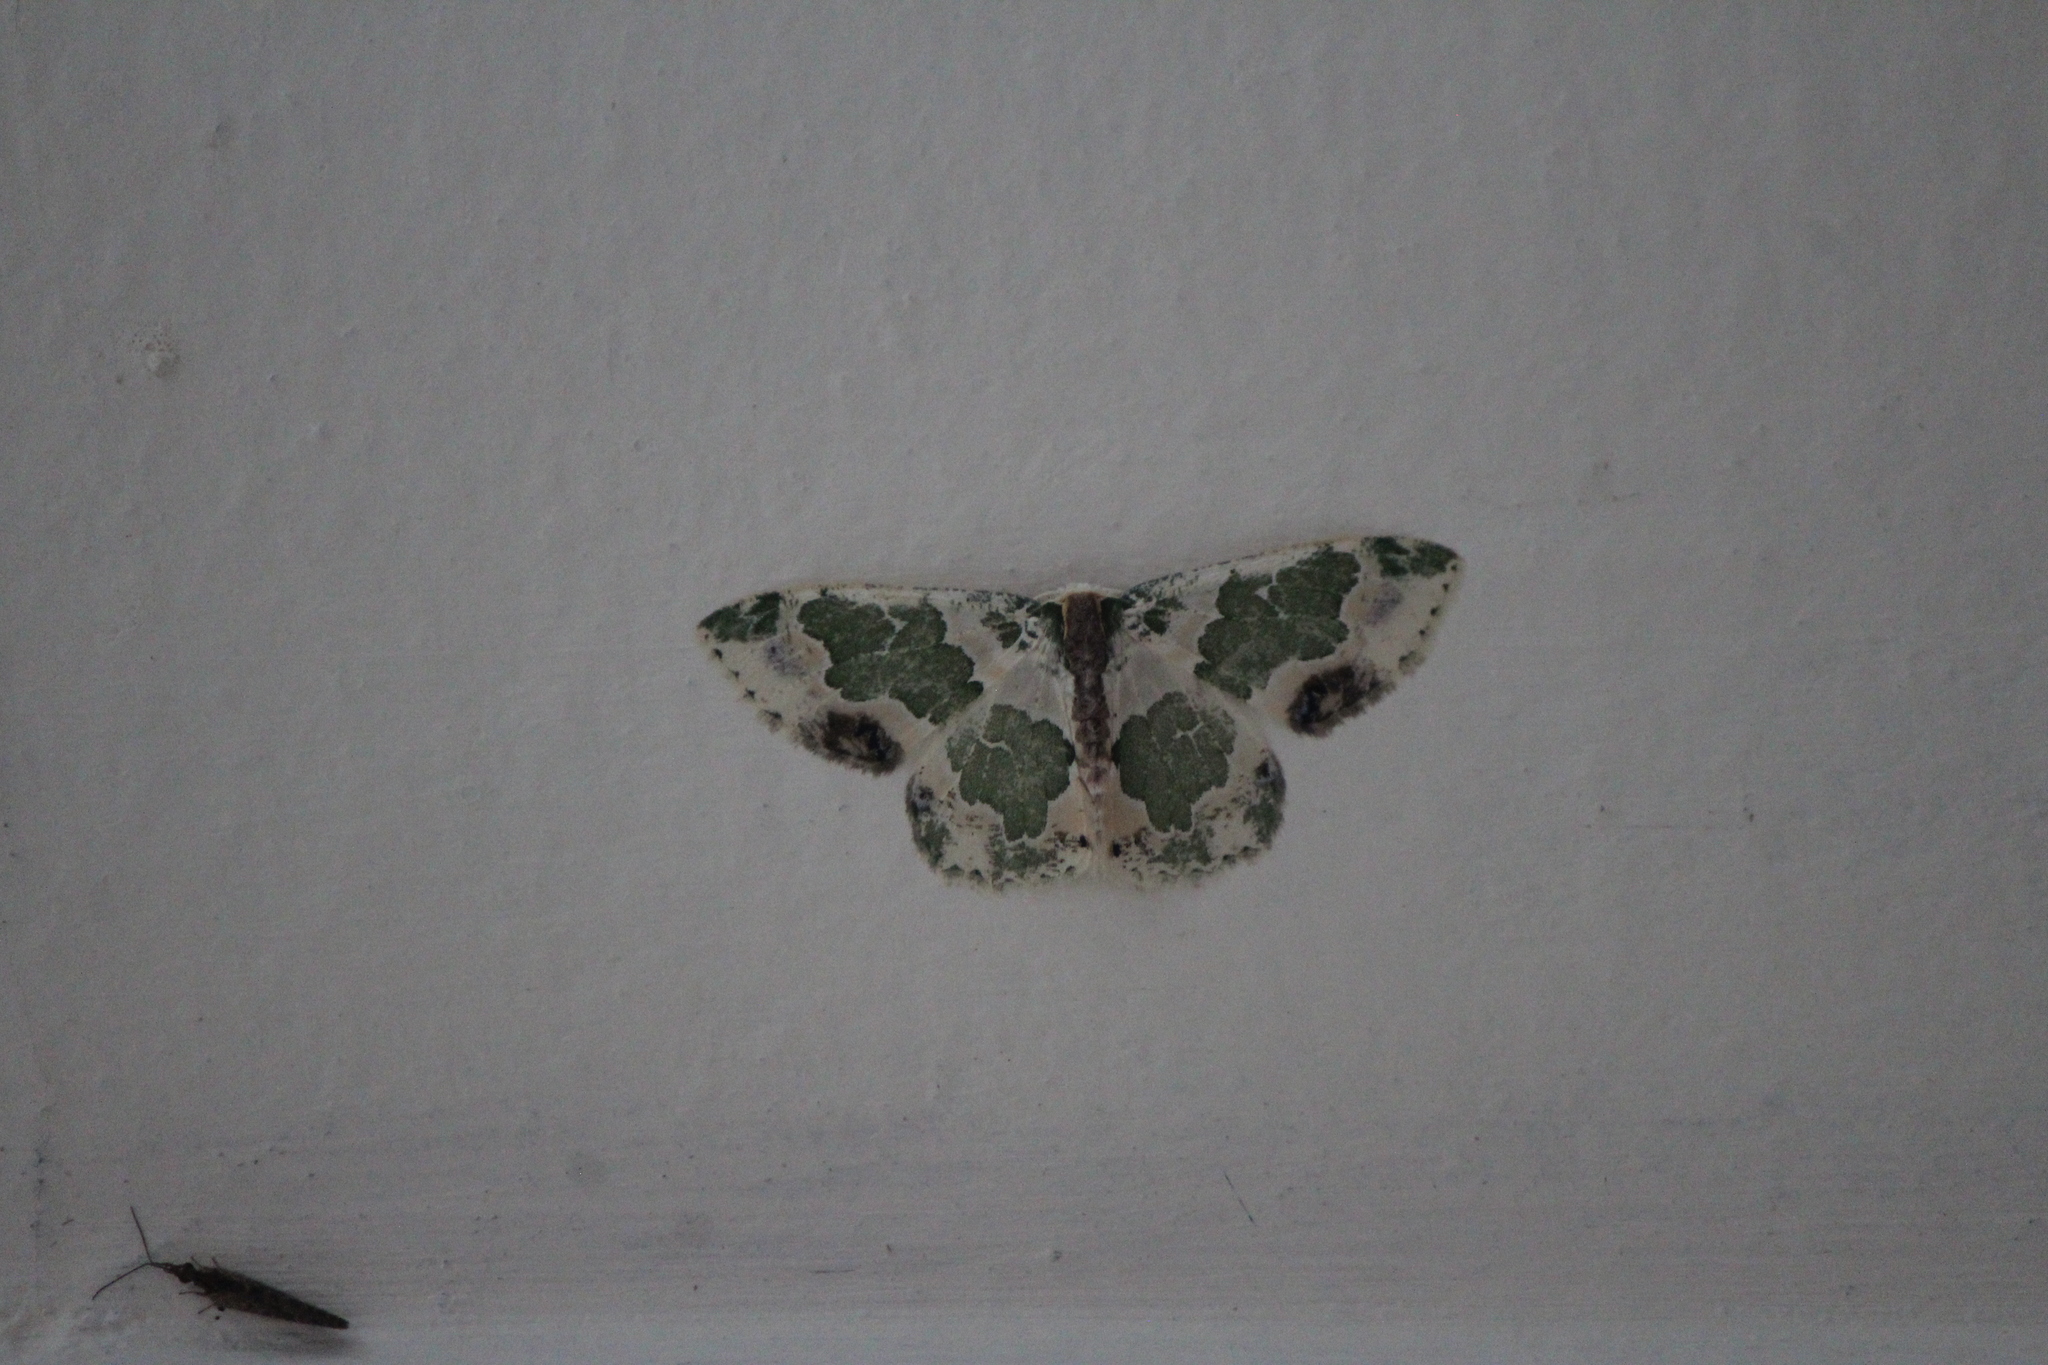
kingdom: Animalia
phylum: Arthropoda
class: Insecta
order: Lepidoptera
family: Geometridae
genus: Lophochorista
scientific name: Lophochorista calliope
